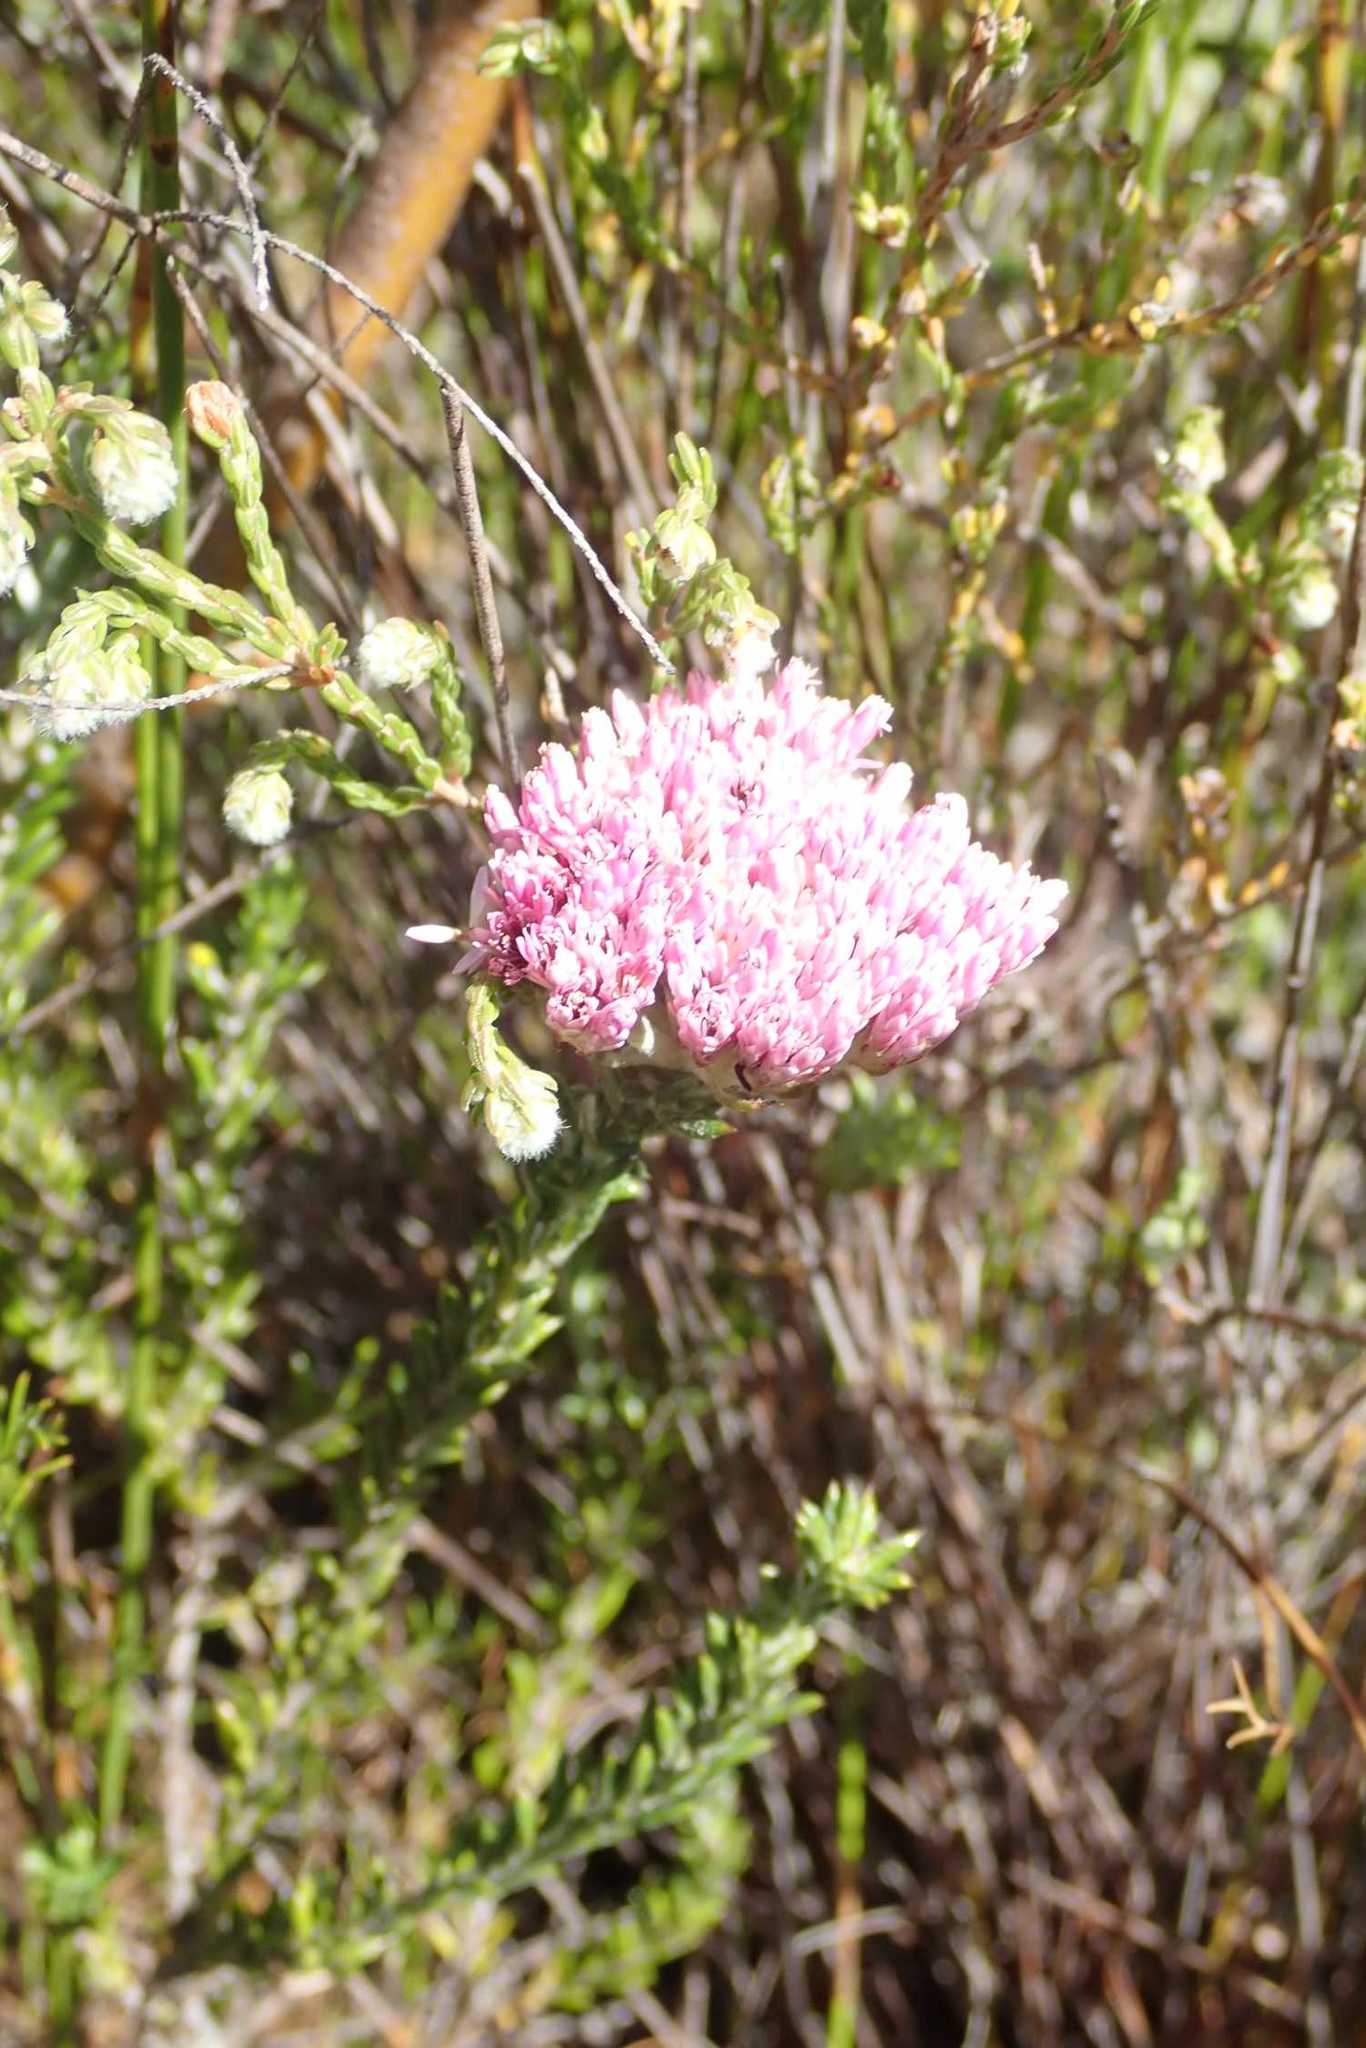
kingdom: Plantae
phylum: Tracheophyta
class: Magnoliopsida
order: Asterales
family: Asteraceae
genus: Metalasia
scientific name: Metalasia erubescens
